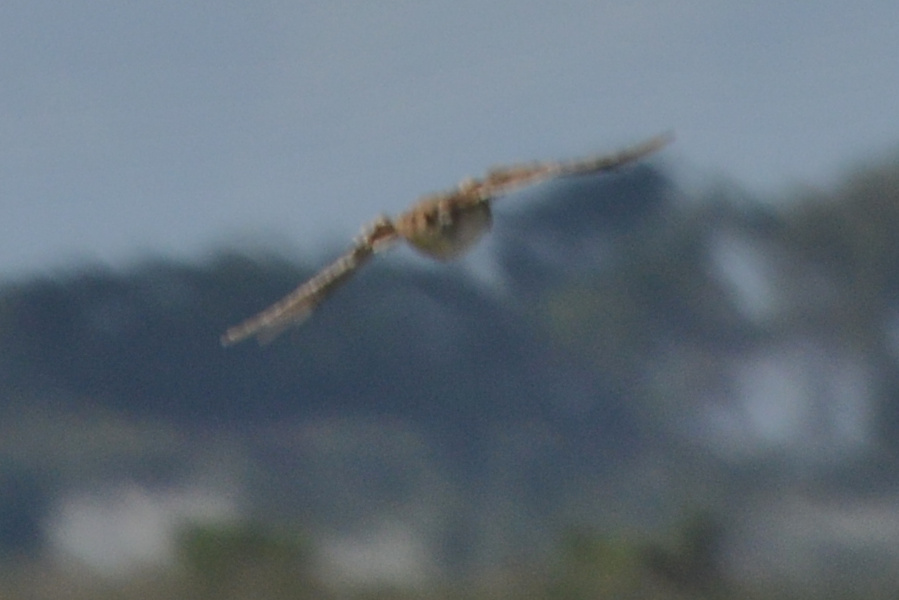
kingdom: Animalia
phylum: Chordata
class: Aves
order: Passeriformes
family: Alaudidae
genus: Alauda
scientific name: Alauda arvensis
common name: Eurasian skylark
